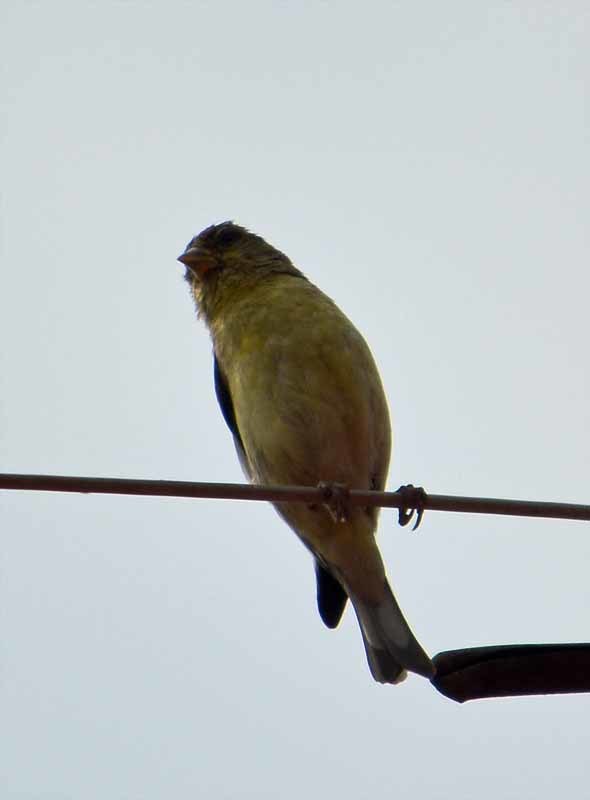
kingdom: Animalia
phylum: Chordata
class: Aves
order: Passeriformes
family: Fringillidae
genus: Spinus
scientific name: Spinus psaltria
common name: Lesser goldfinch
